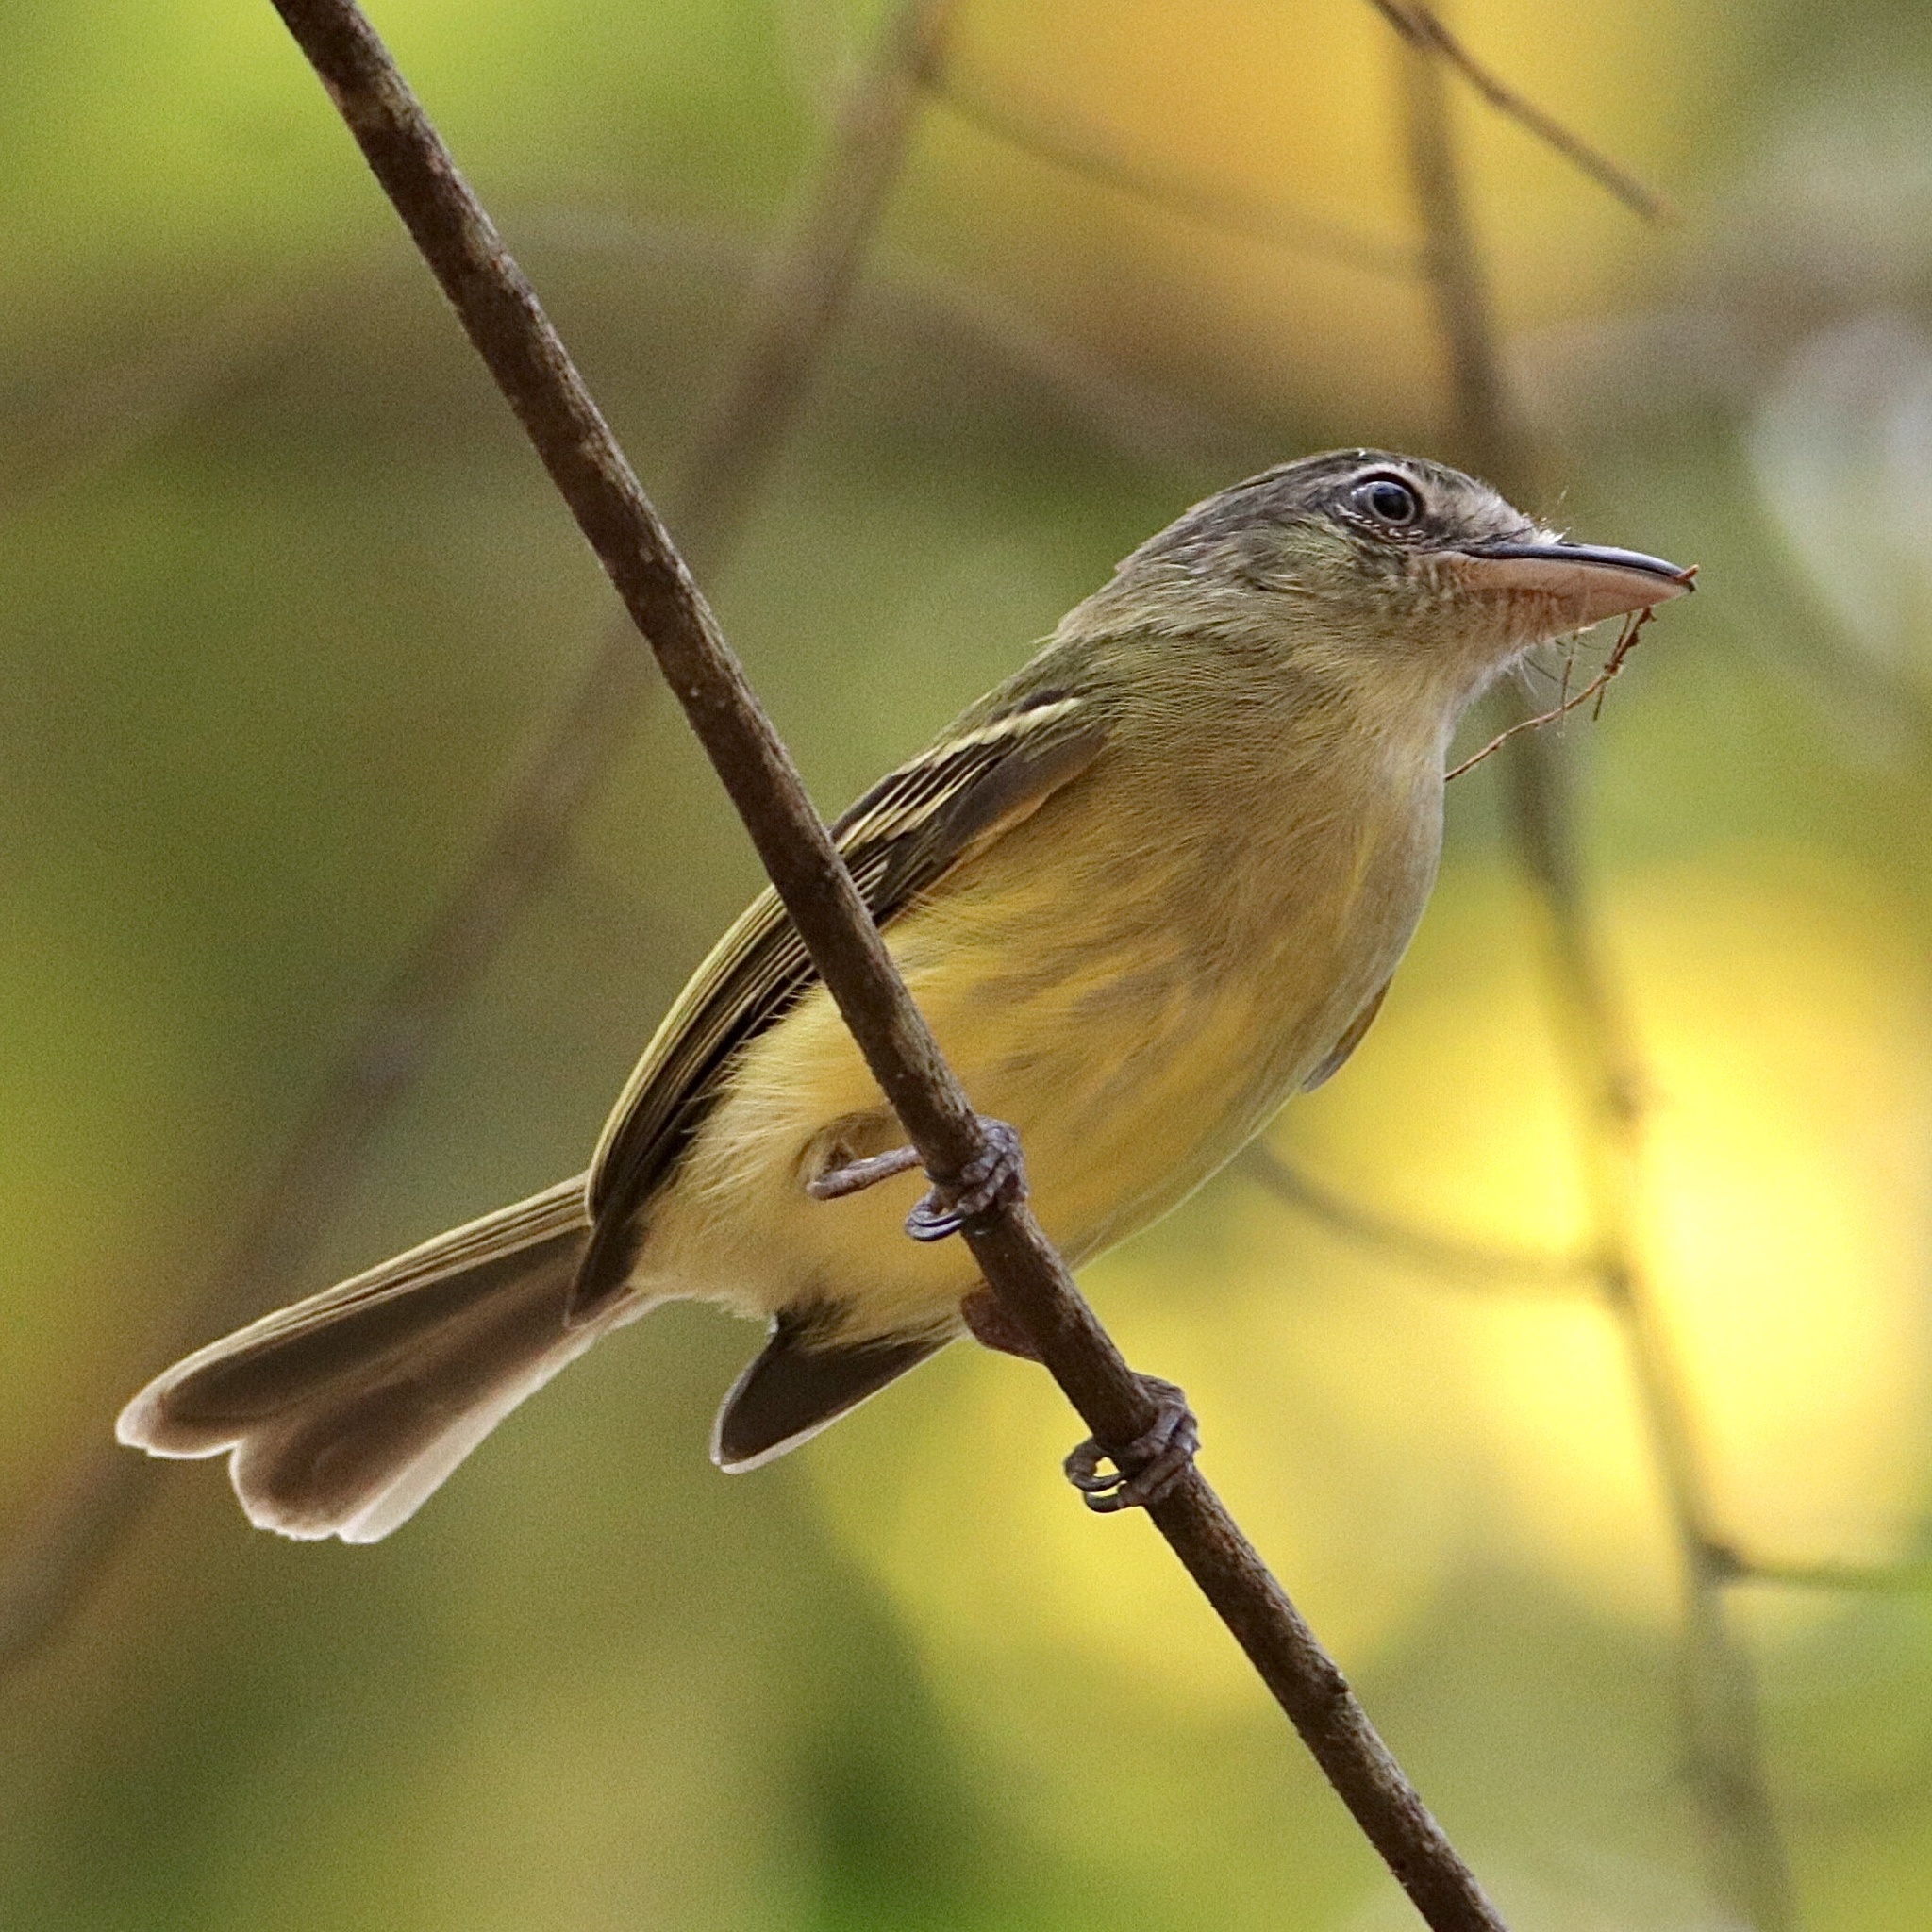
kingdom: Animalia
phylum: Chordata
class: Aves
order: Passeriformes
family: Tyrannidae
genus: Tolmomyias
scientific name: Tolmomyias sulphurescens
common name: Yellow-olive flycatcher
